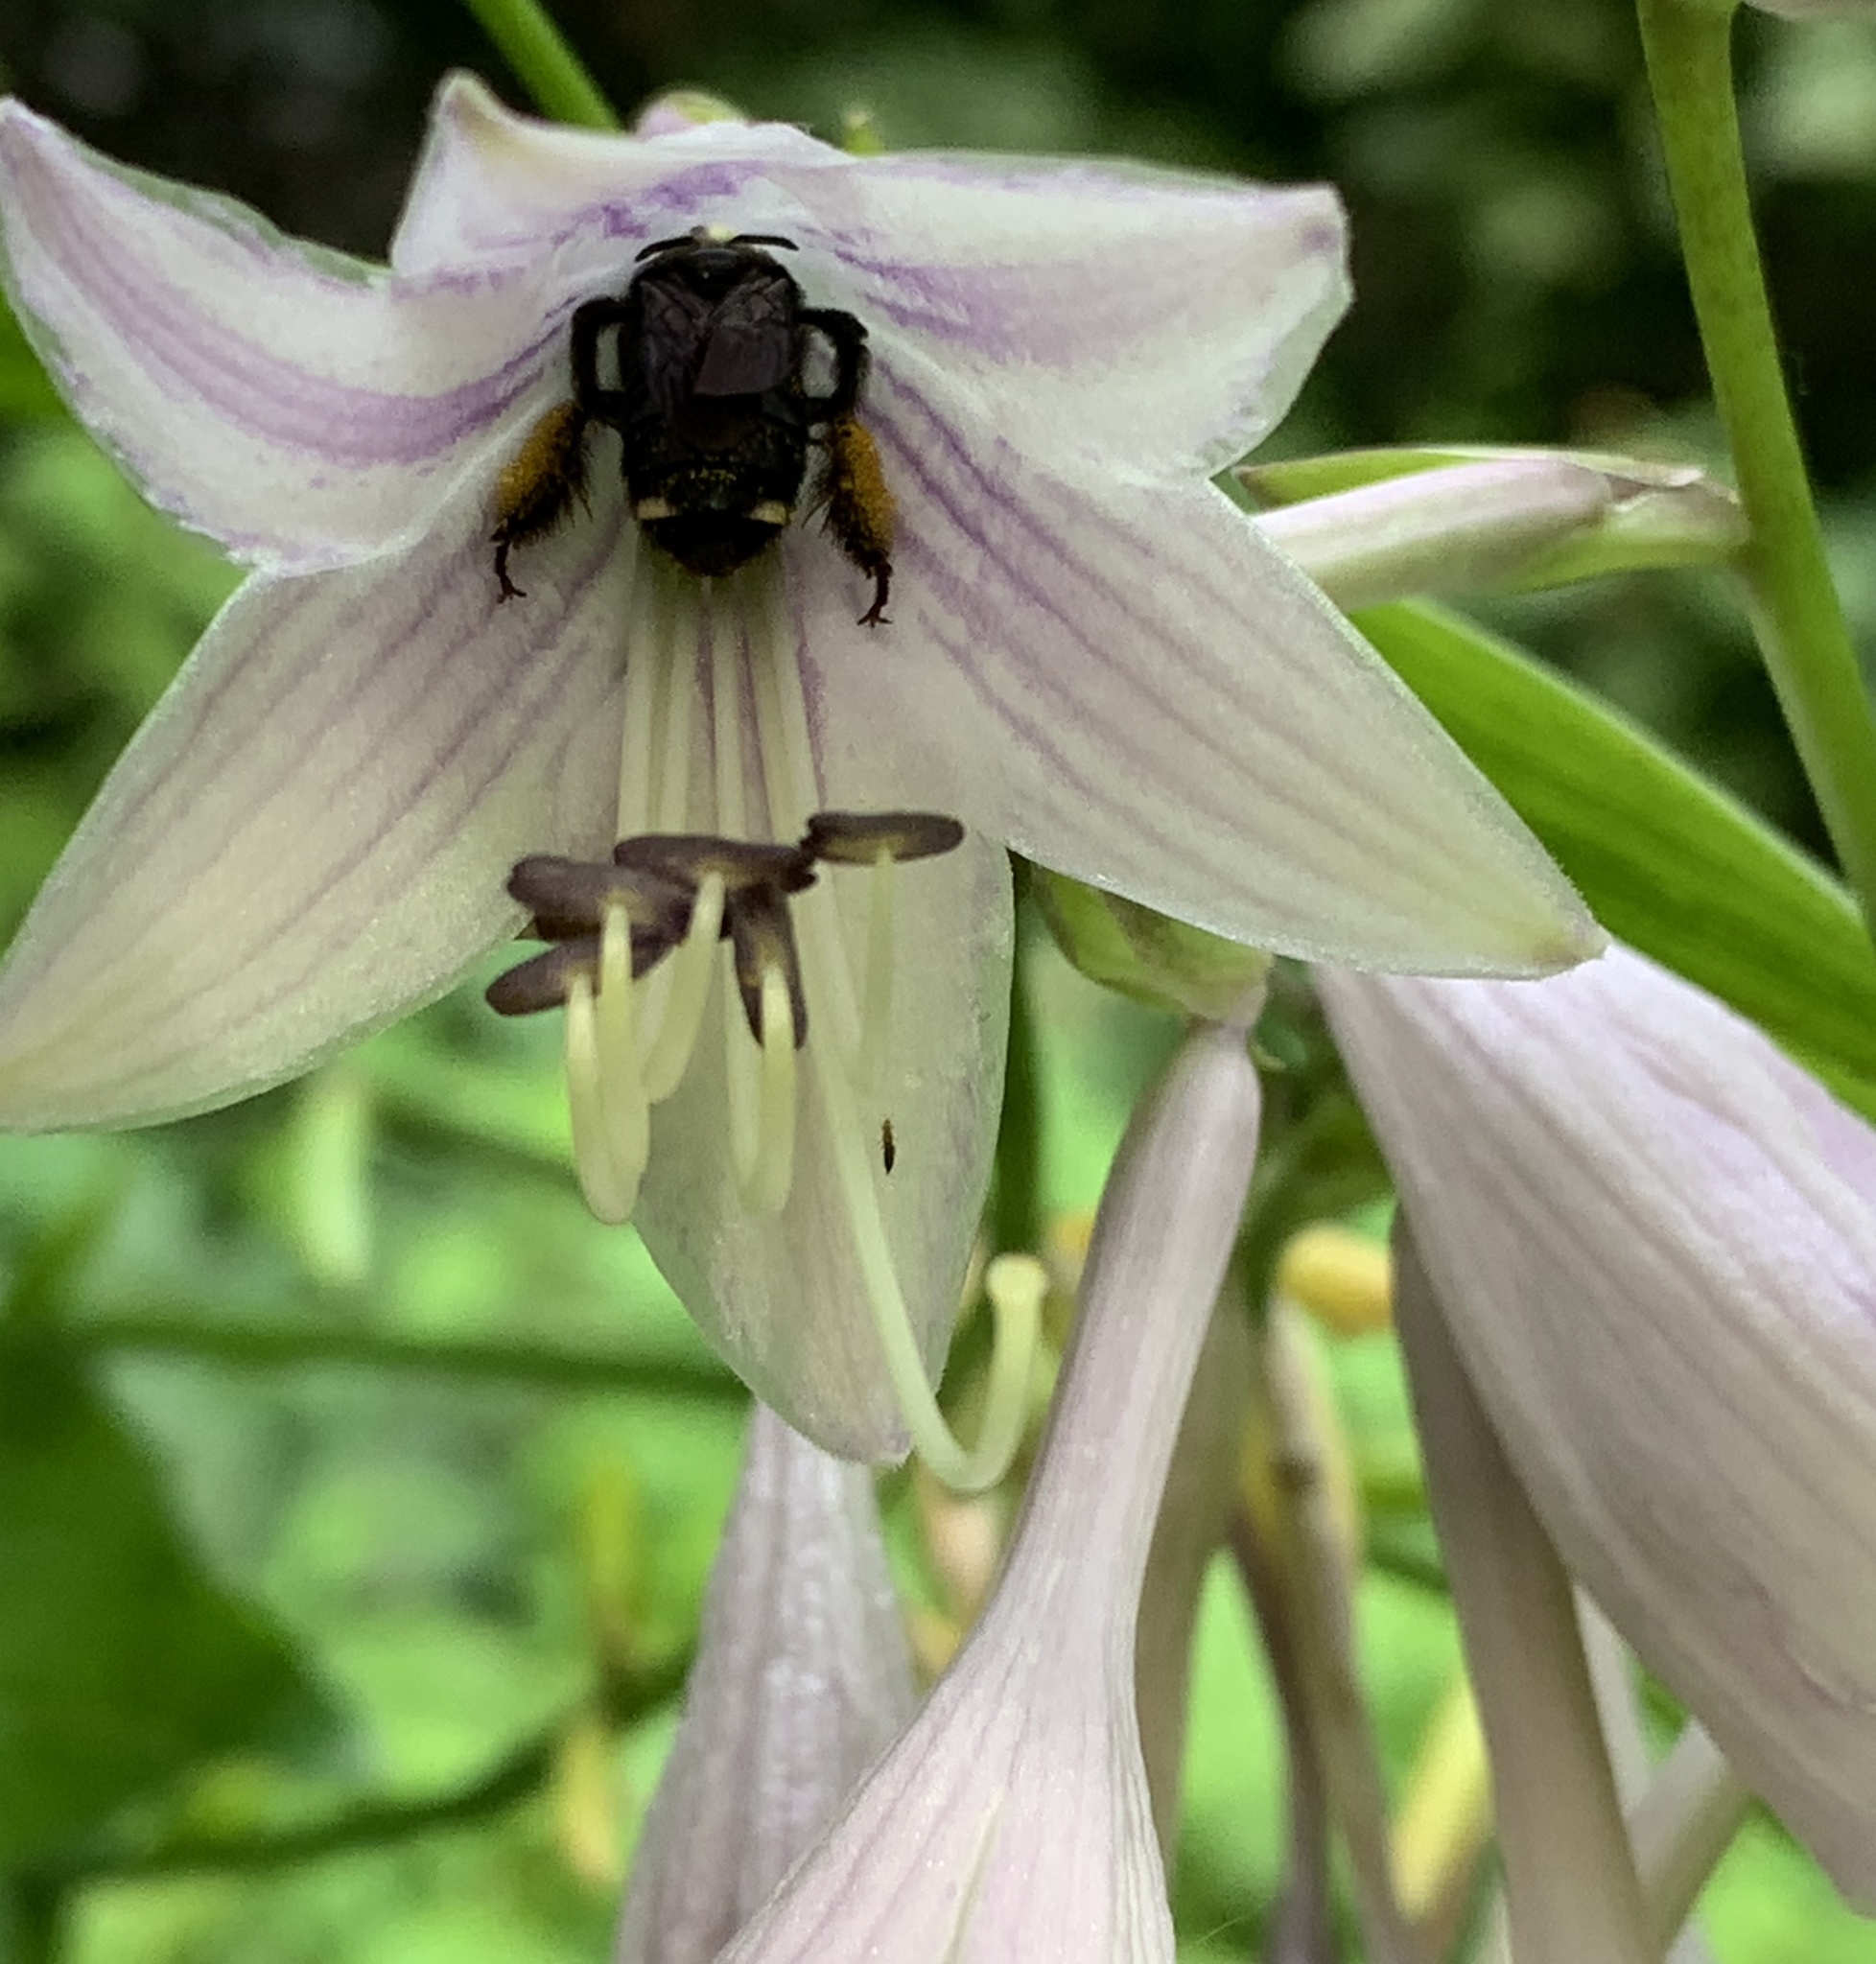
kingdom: Animalia
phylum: Arthropoda
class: Insecta
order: Hymenoptera
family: Apidae
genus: Melissodes
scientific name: Melissodes bimaculatus
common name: Two-spotted long-horned bee
